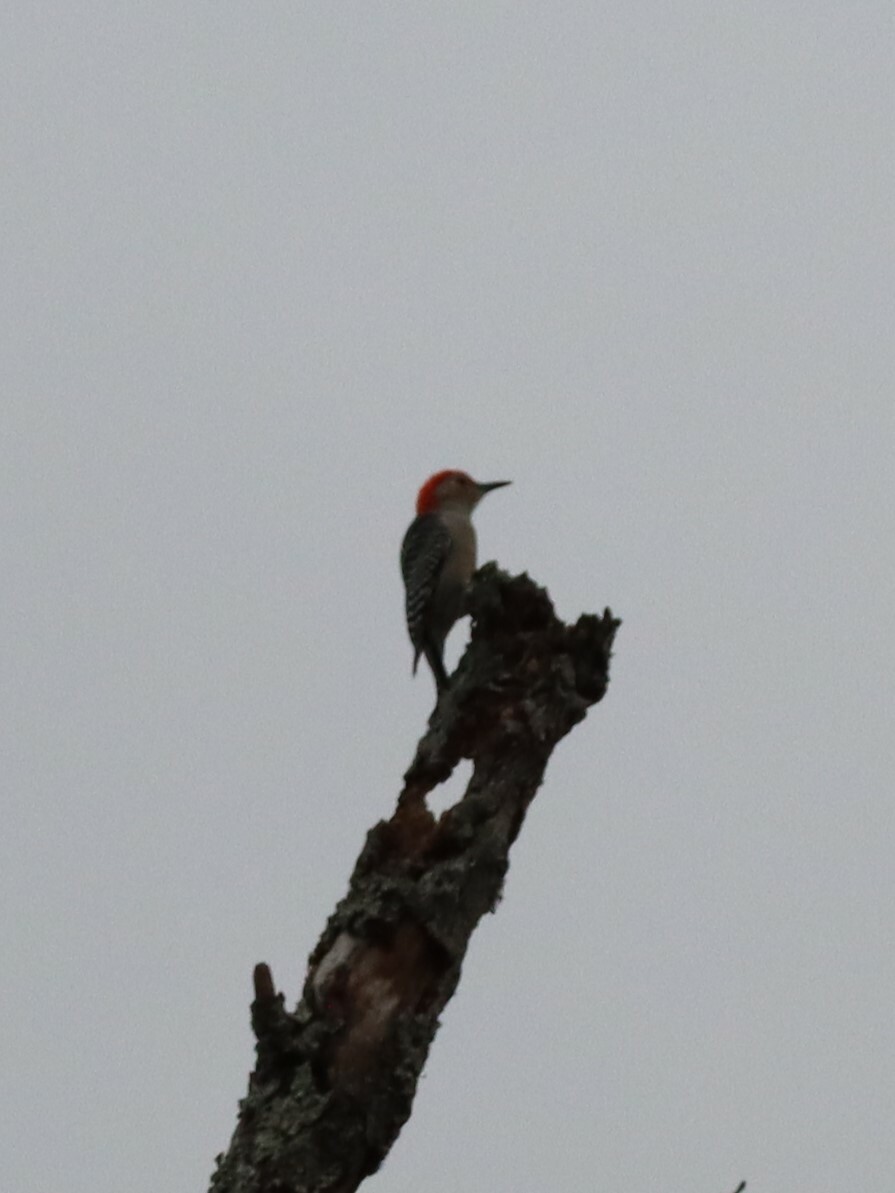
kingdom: Animalia
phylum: Chordata
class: Aves
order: Piciformes
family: Picidae
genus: Melanerpes
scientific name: Melanerpes carolinus
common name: Red-bellied woodpecker
